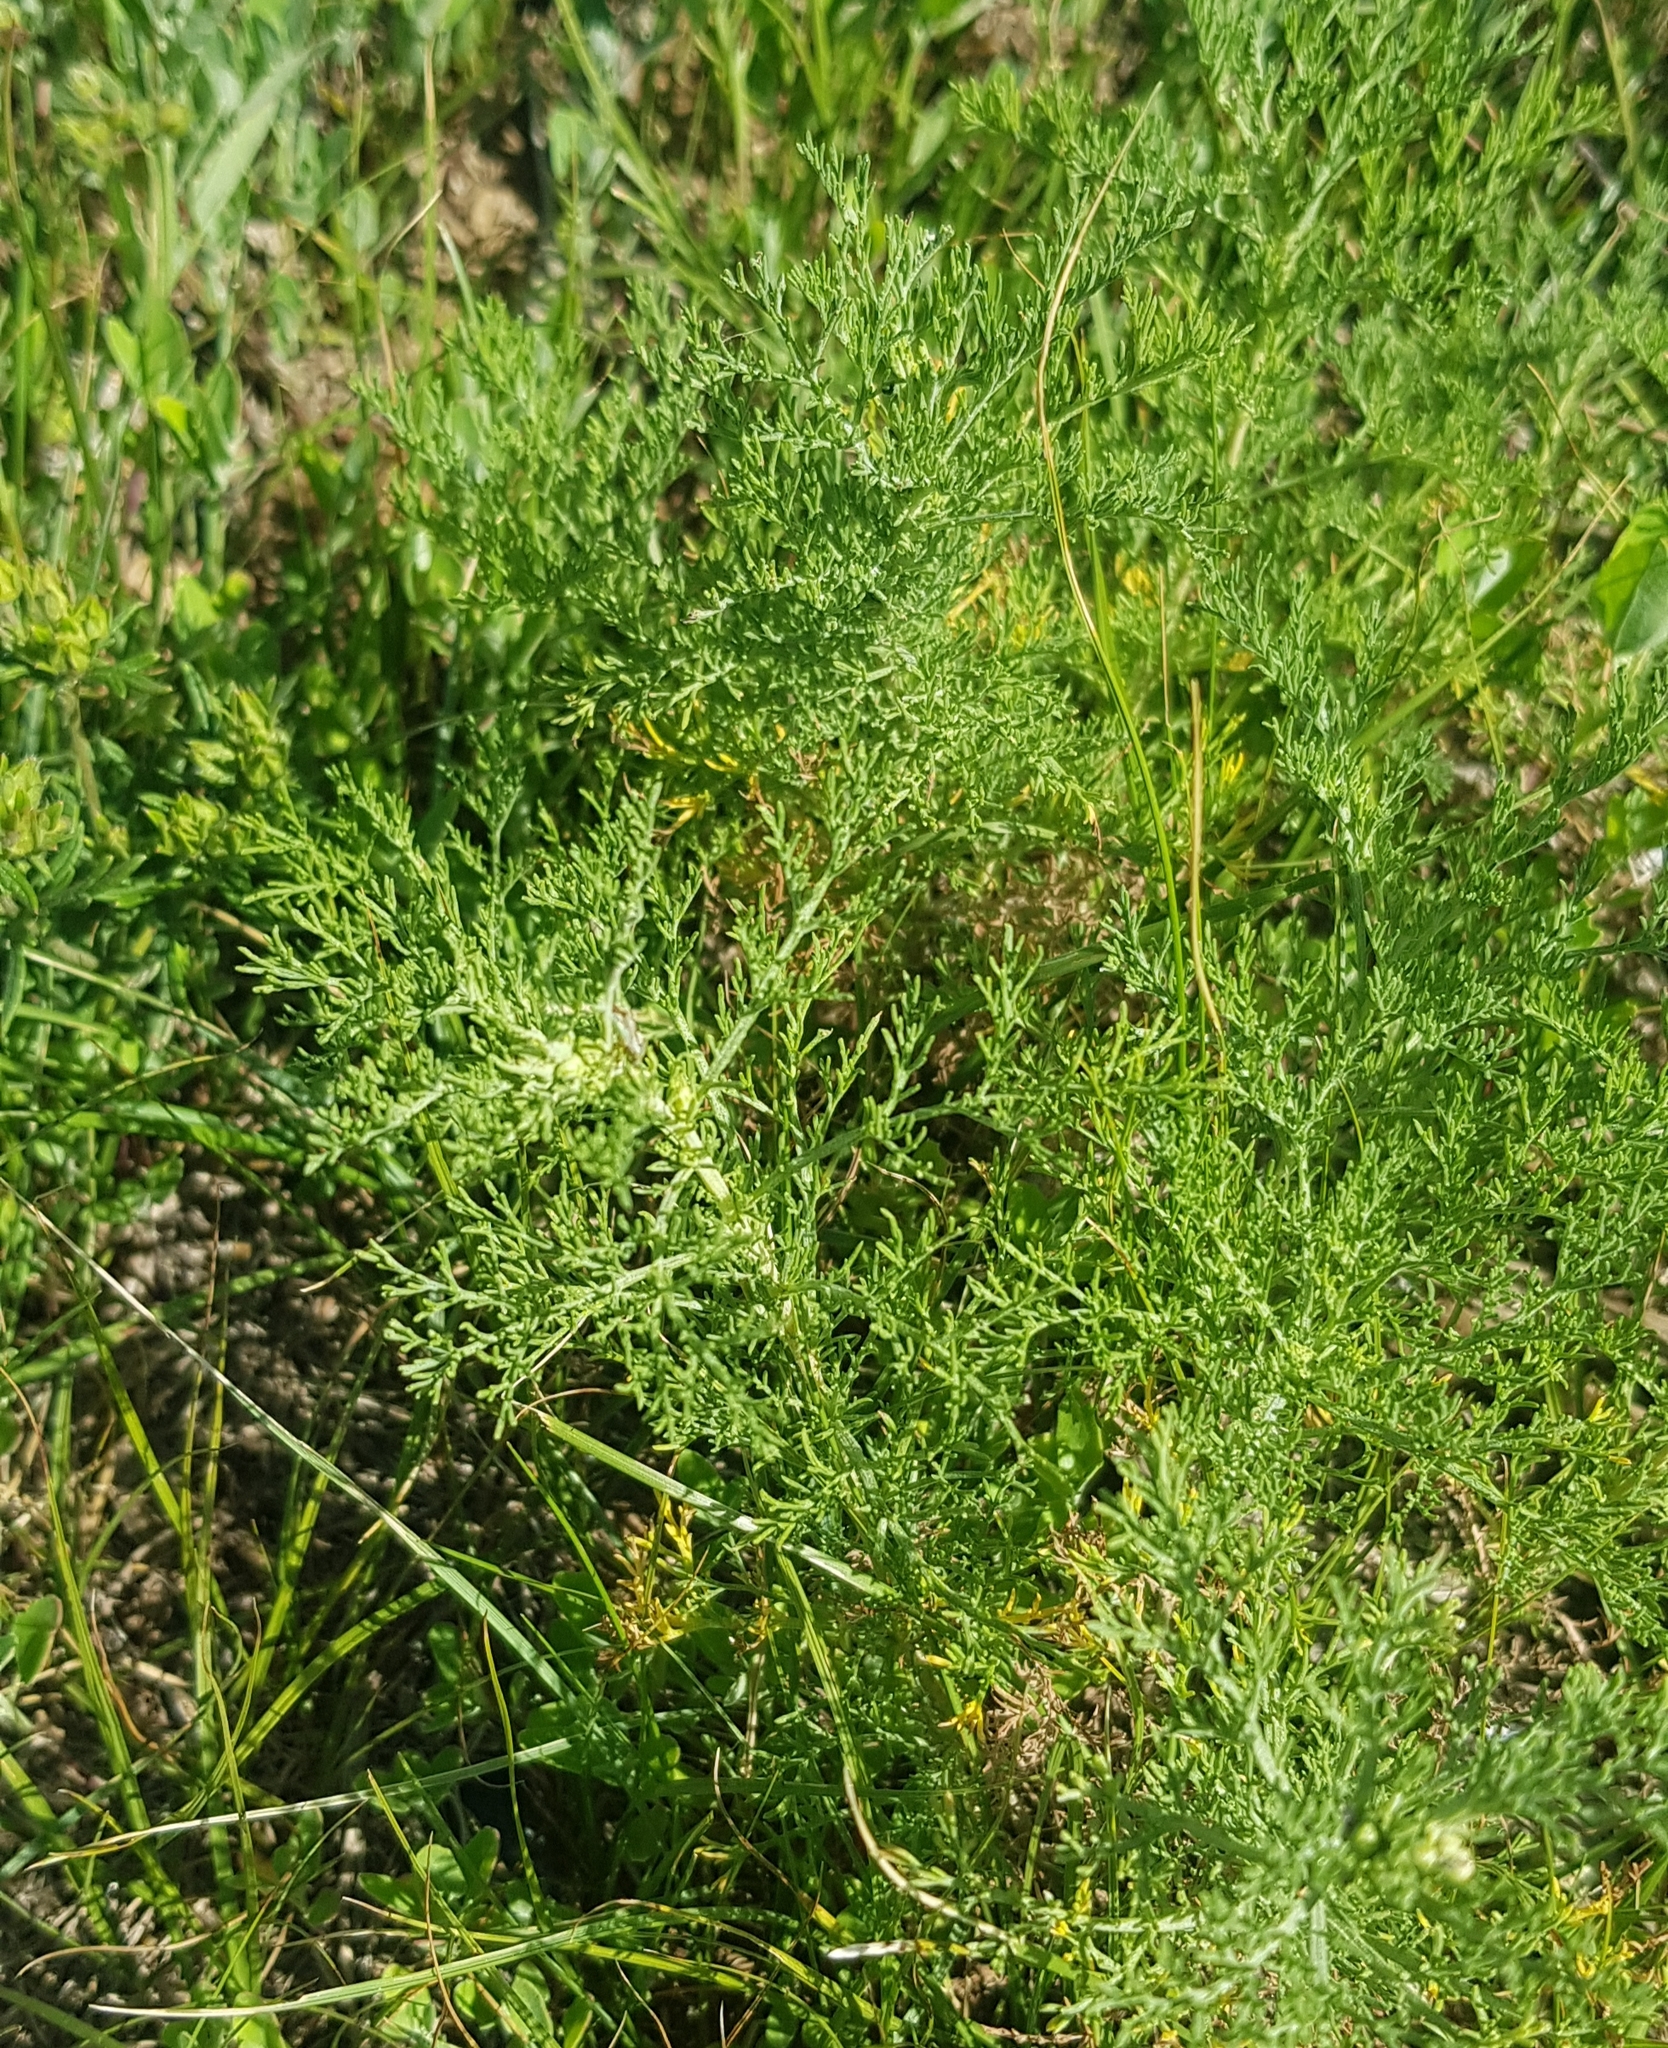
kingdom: Plantae
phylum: Tracheophyta
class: Magnoliopsida
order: Asterales
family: Asteraceae
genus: Artemisia
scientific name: Artemisia adamsii
